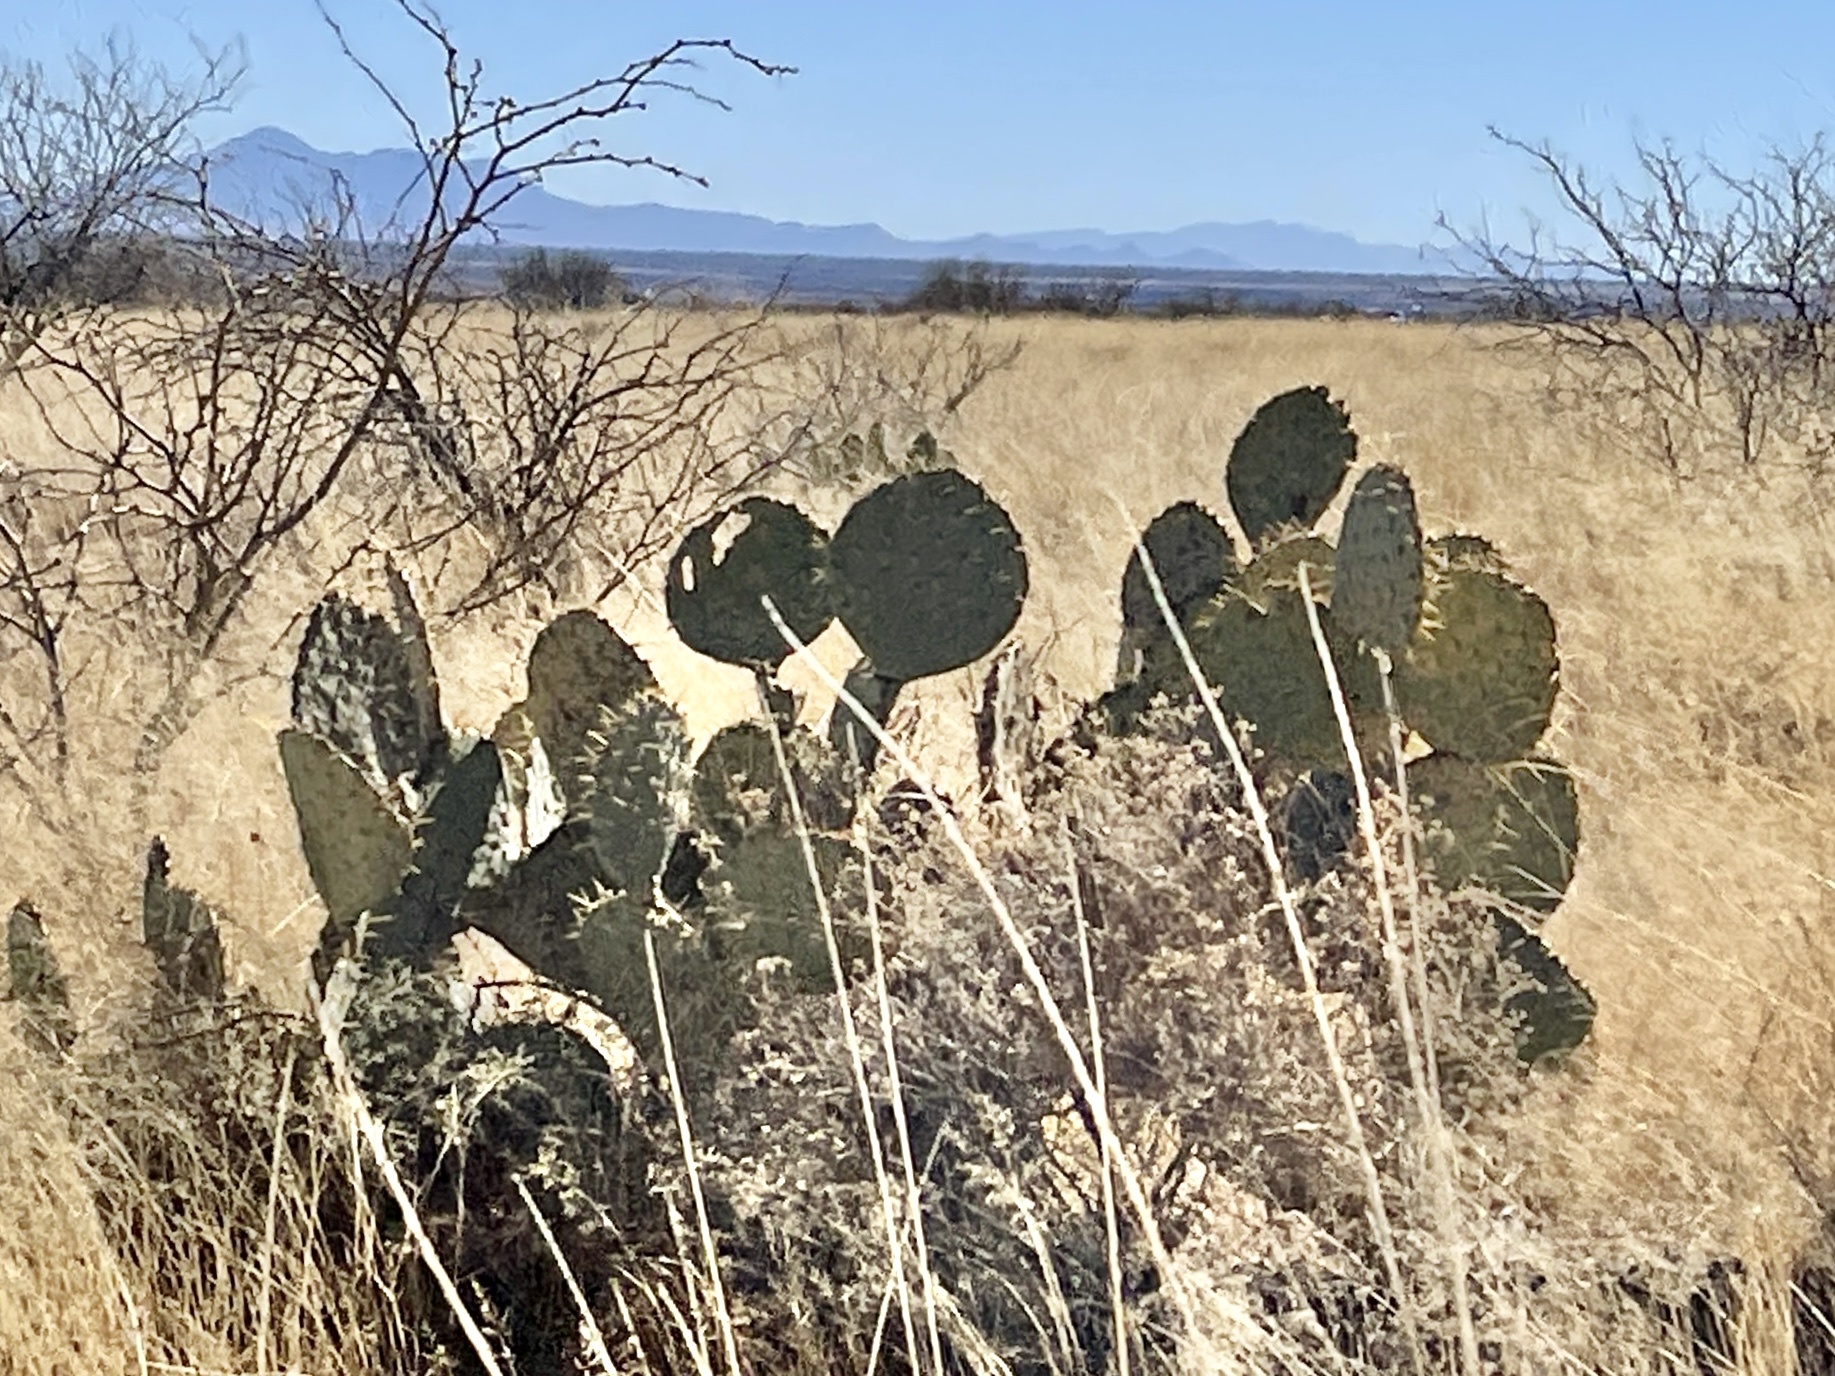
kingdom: Plantae
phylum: Tracheophyta
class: Magnoliopsida
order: Caryophyllales
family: Cactaceae
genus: Opuntia
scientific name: Opuntia engelmannii
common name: Cactus-apple
